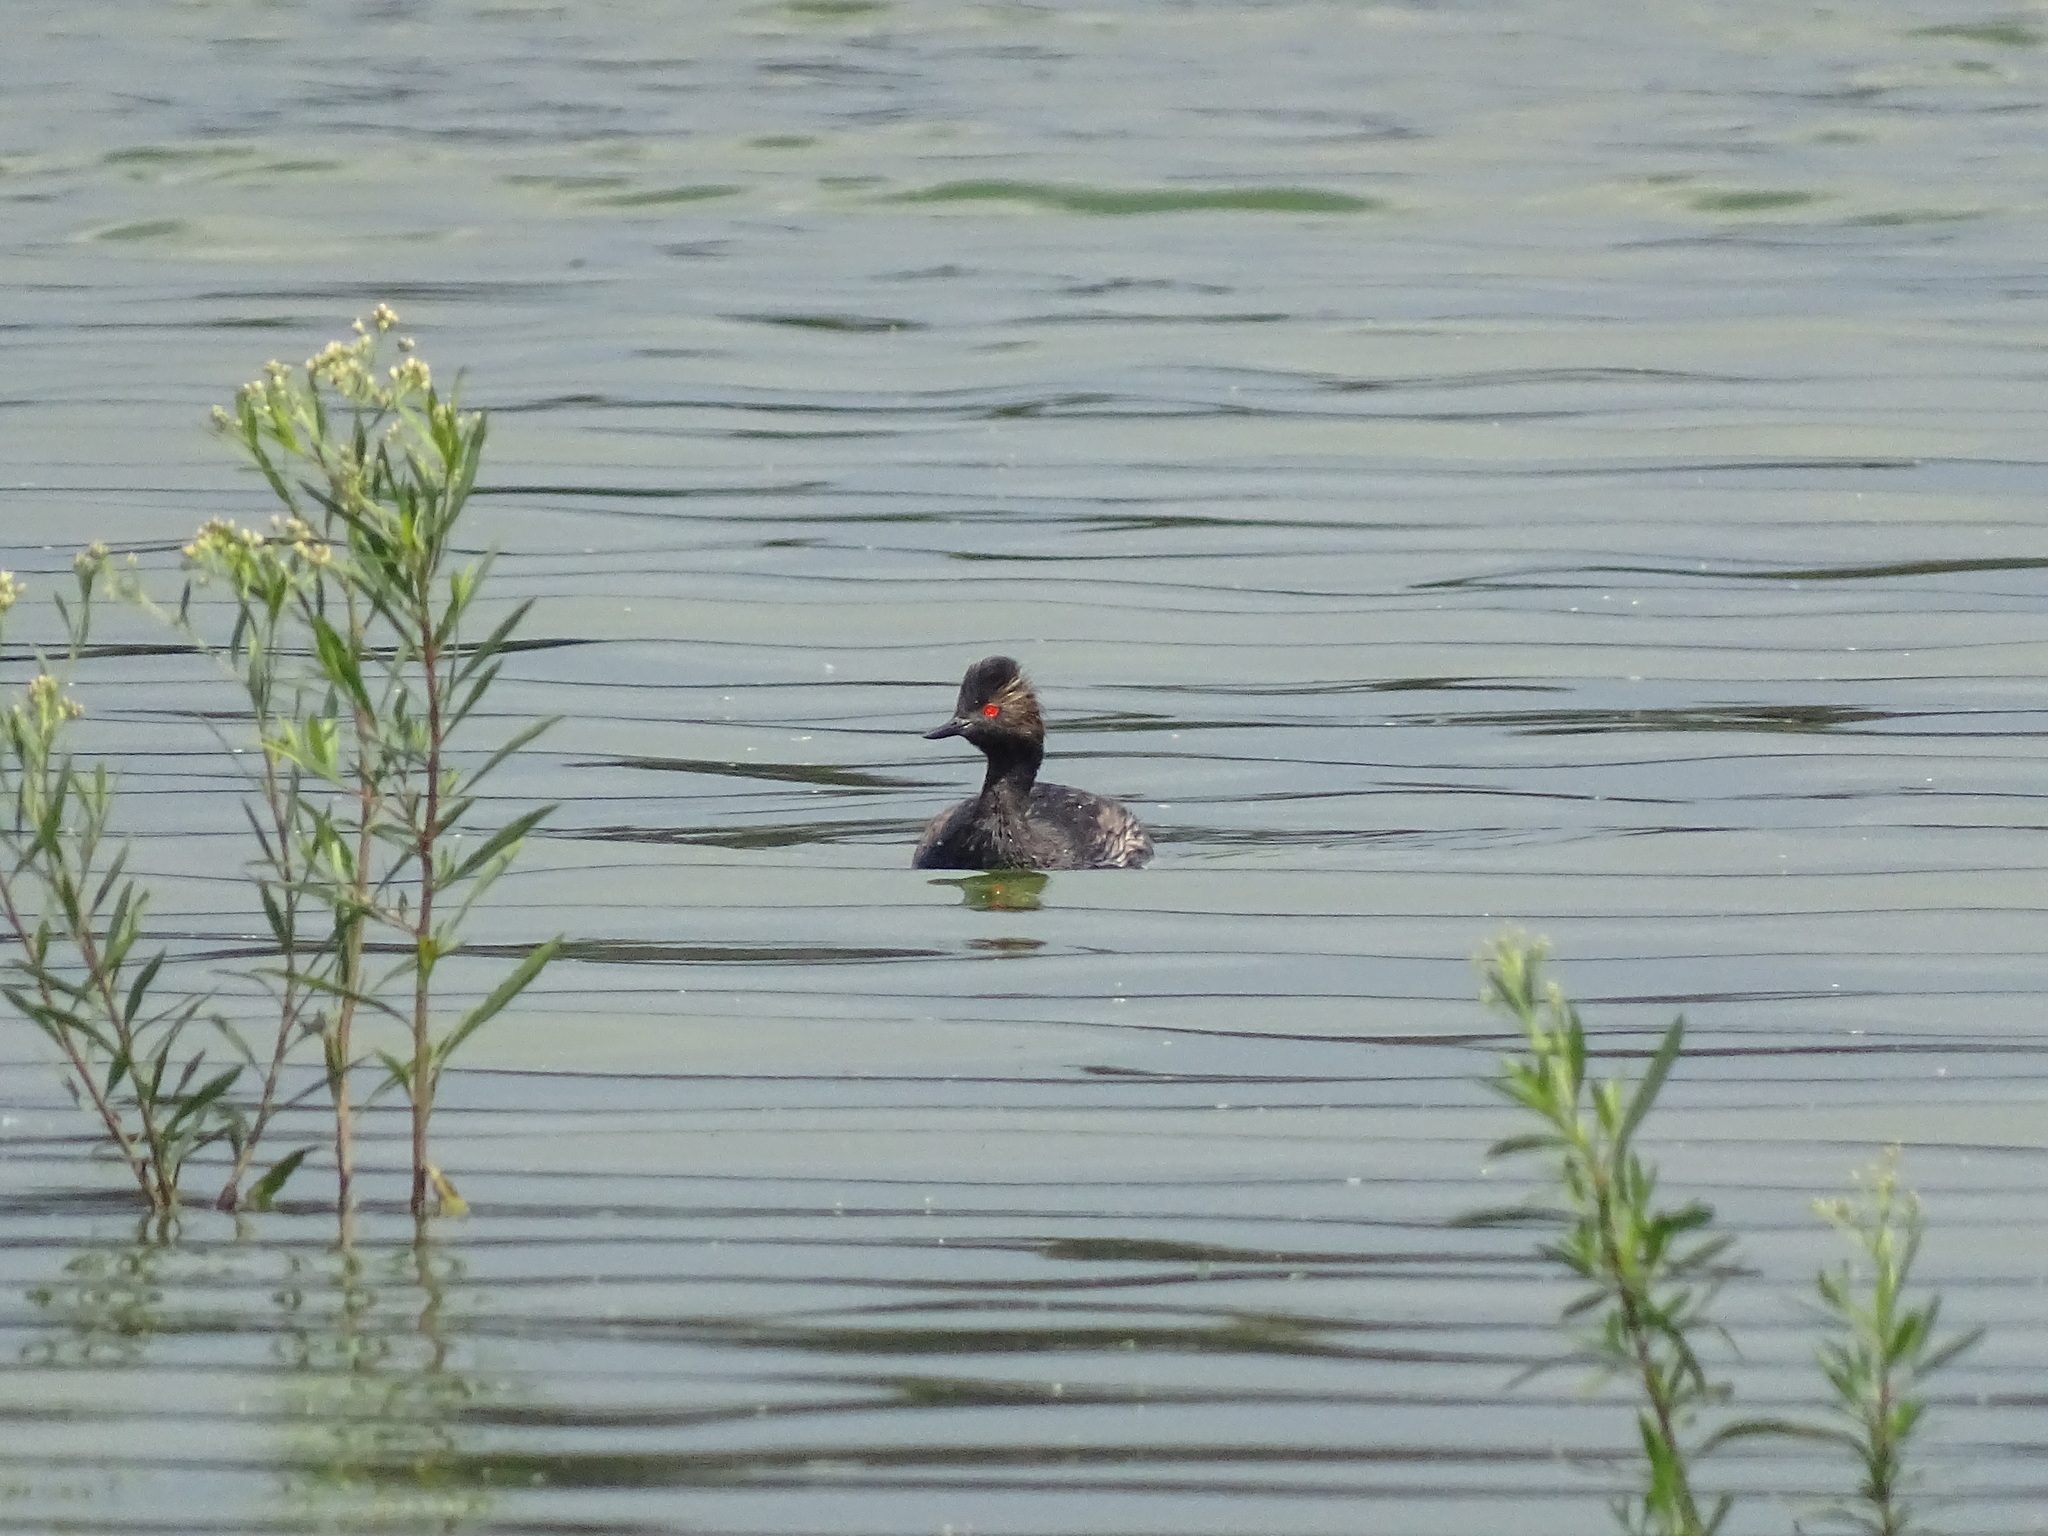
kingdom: Animalia
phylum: Chordata
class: Aves
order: Podicipediformes
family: Podicipedidae
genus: Podiceps
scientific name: Podiceps nigricollis
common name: Black-necked grebe
